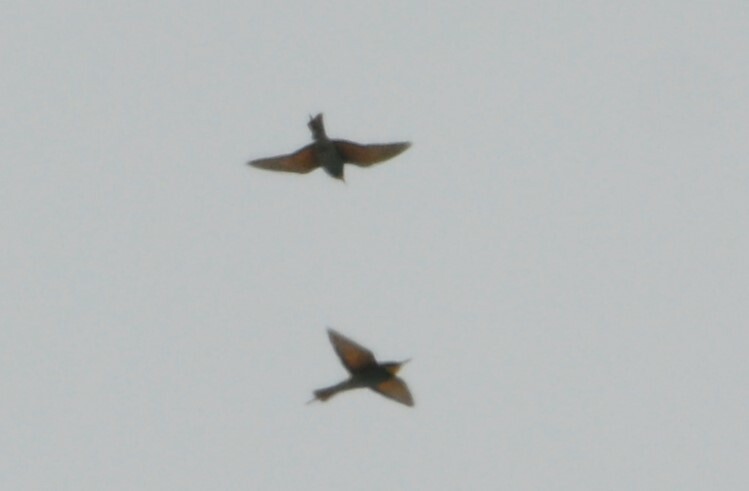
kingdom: Animalia
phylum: Chordata
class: Aves
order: Coraciiformes
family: Meropidae
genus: Merops
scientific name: Merops apiaster
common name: European bee-eater
